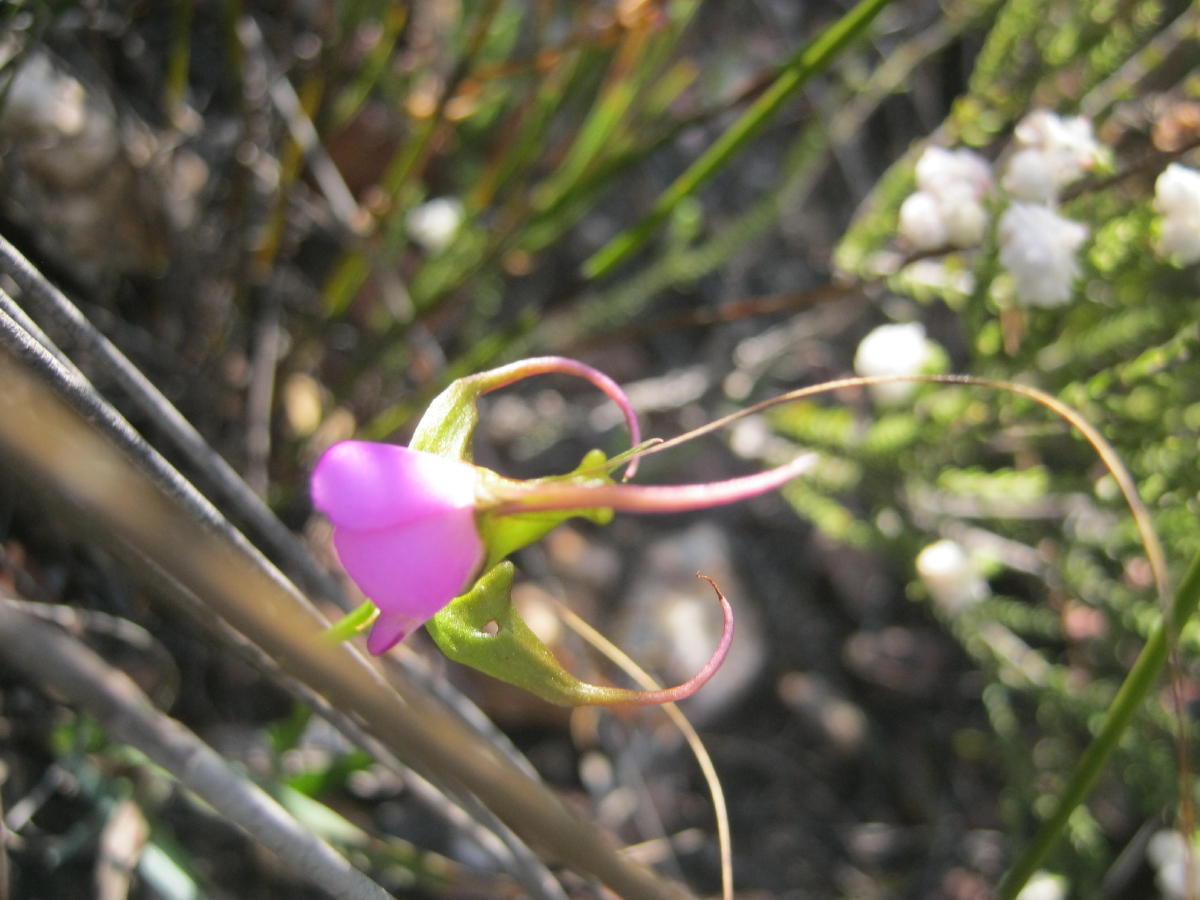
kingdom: Plantae
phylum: Tracheophyta
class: Liliopsida
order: Asparagales
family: Orchidaceae
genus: Disperis
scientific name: Disperis capensis
